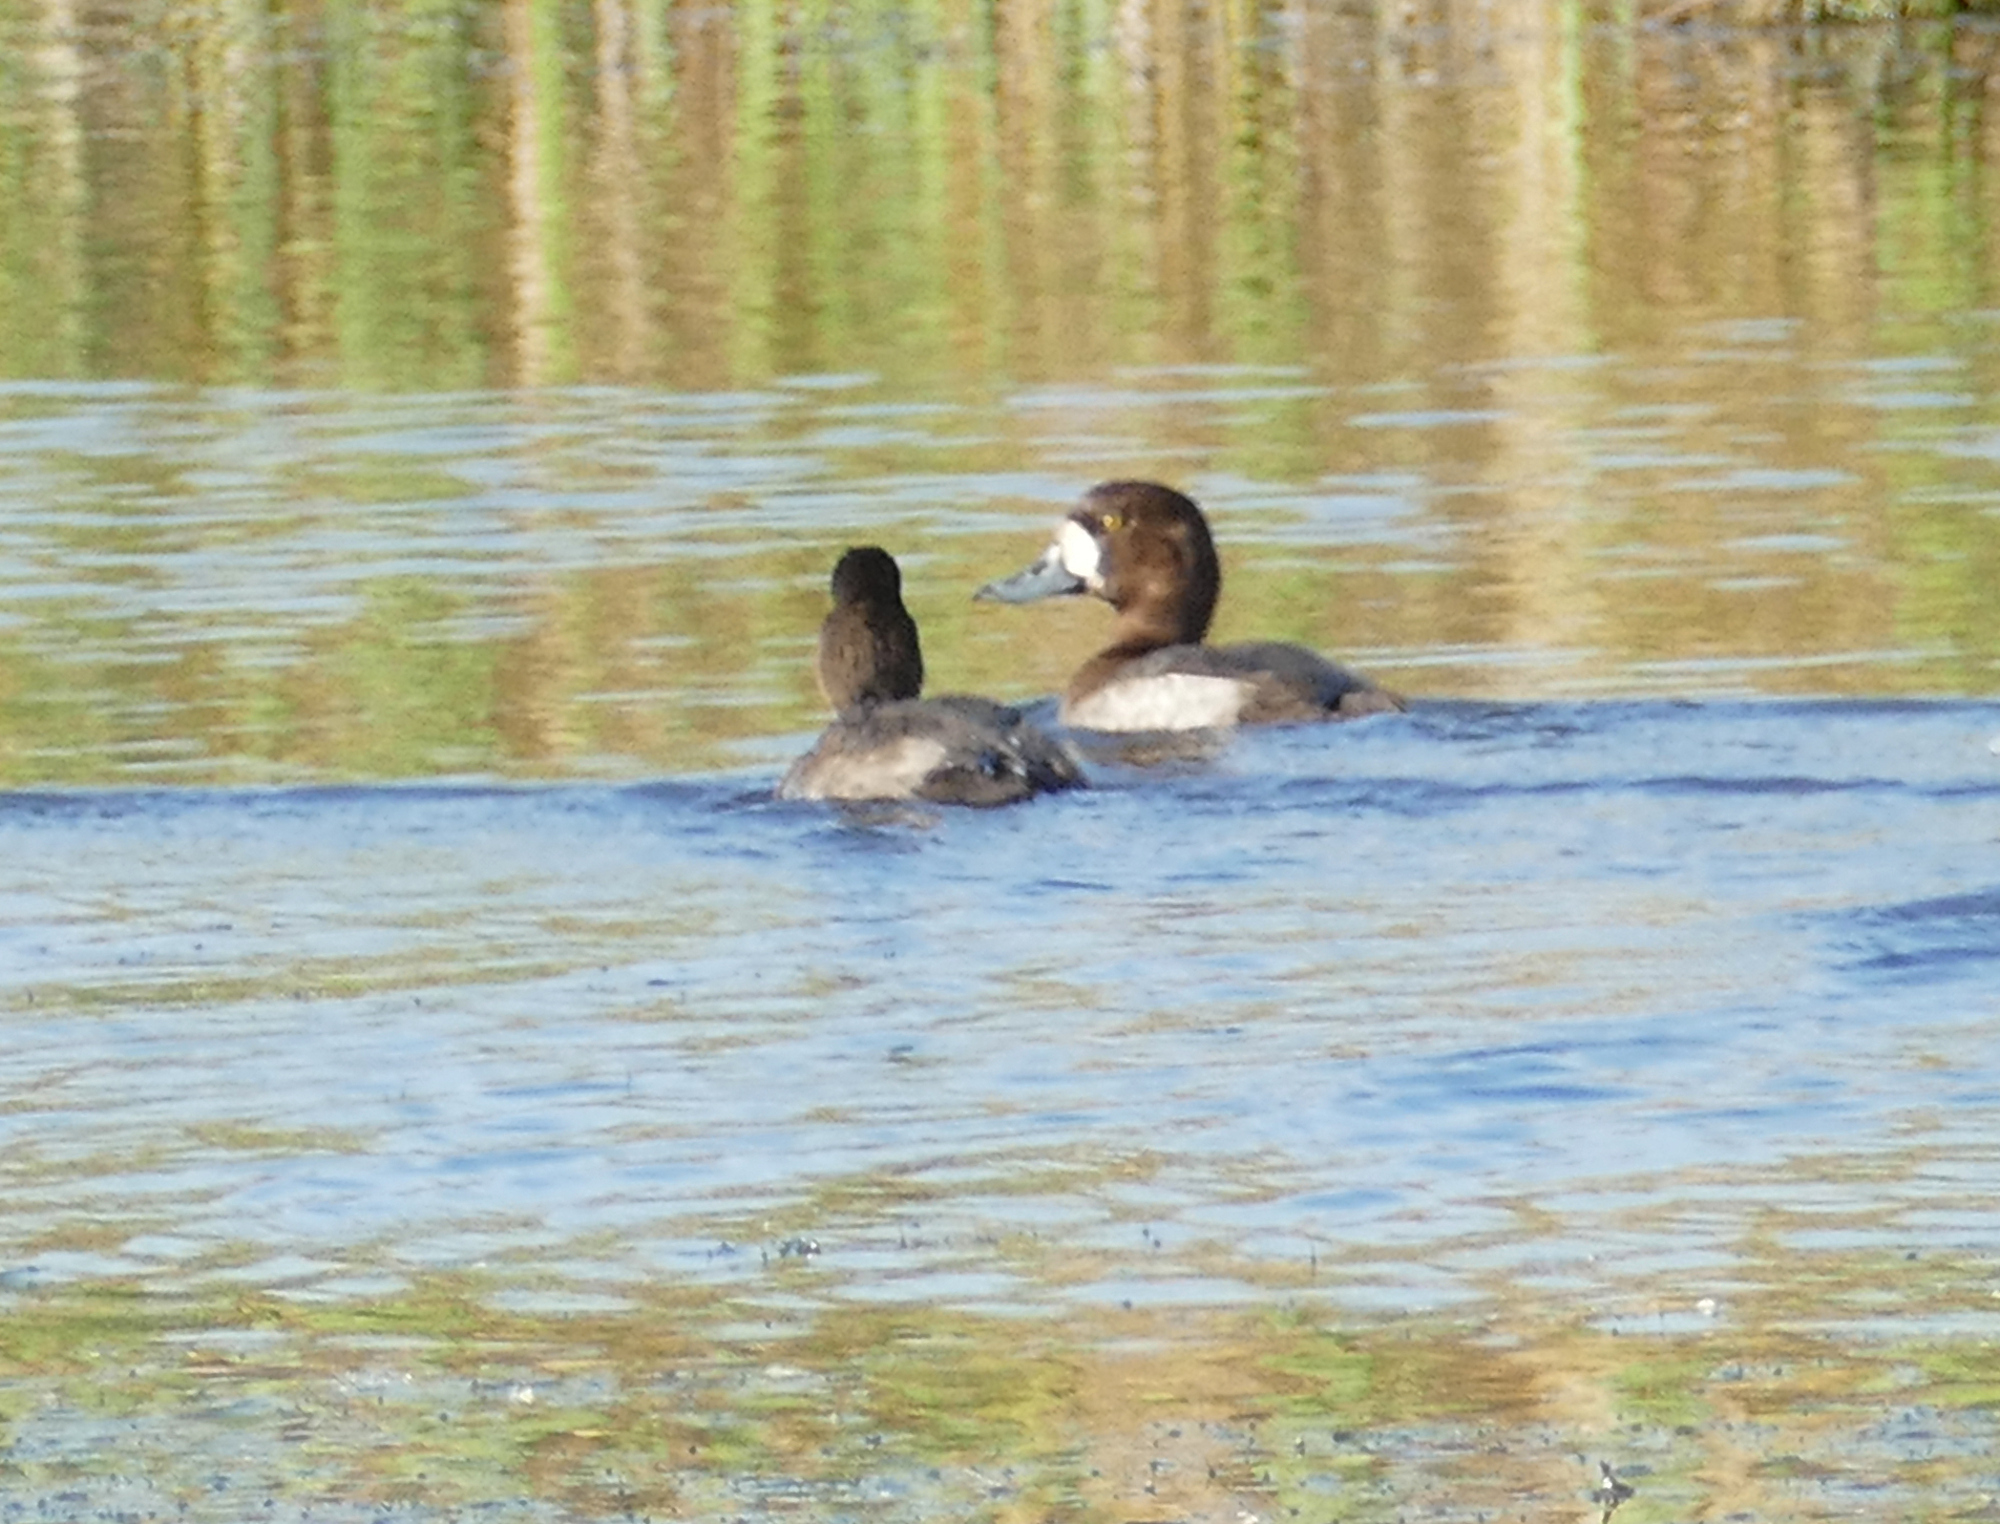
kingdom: Animalia
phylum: Chordata
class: Aves
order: Anseriformes
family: Anatidae
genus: Aythya
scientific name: Aythya marila
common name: Greater scaup
